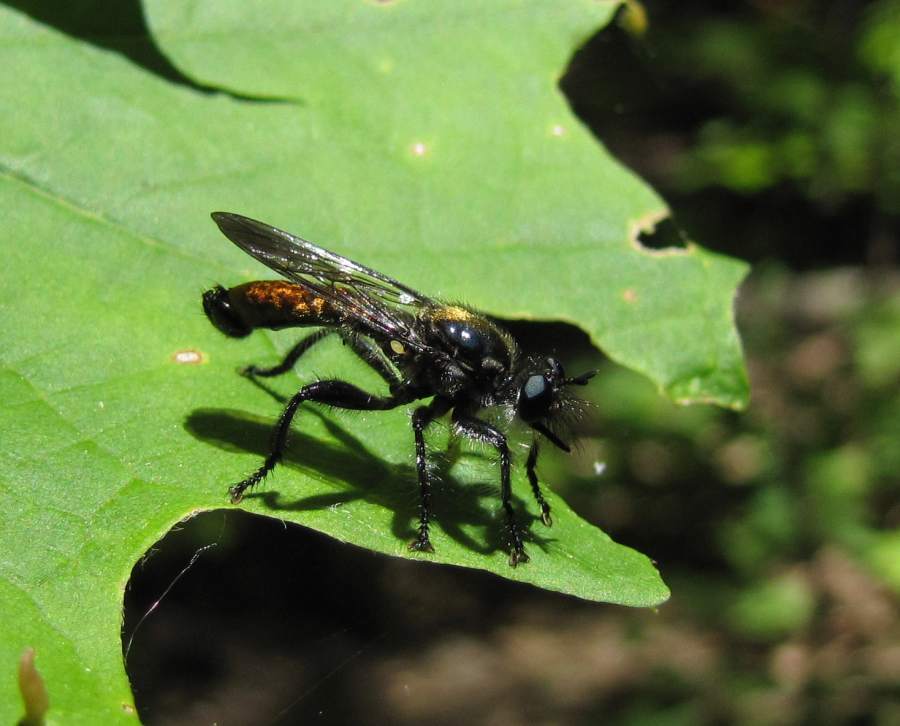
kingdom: Animalia
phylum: Arthropoda
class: Insecta
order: Diptera
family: Asilidae
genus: Laphria
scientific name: Laphria index
